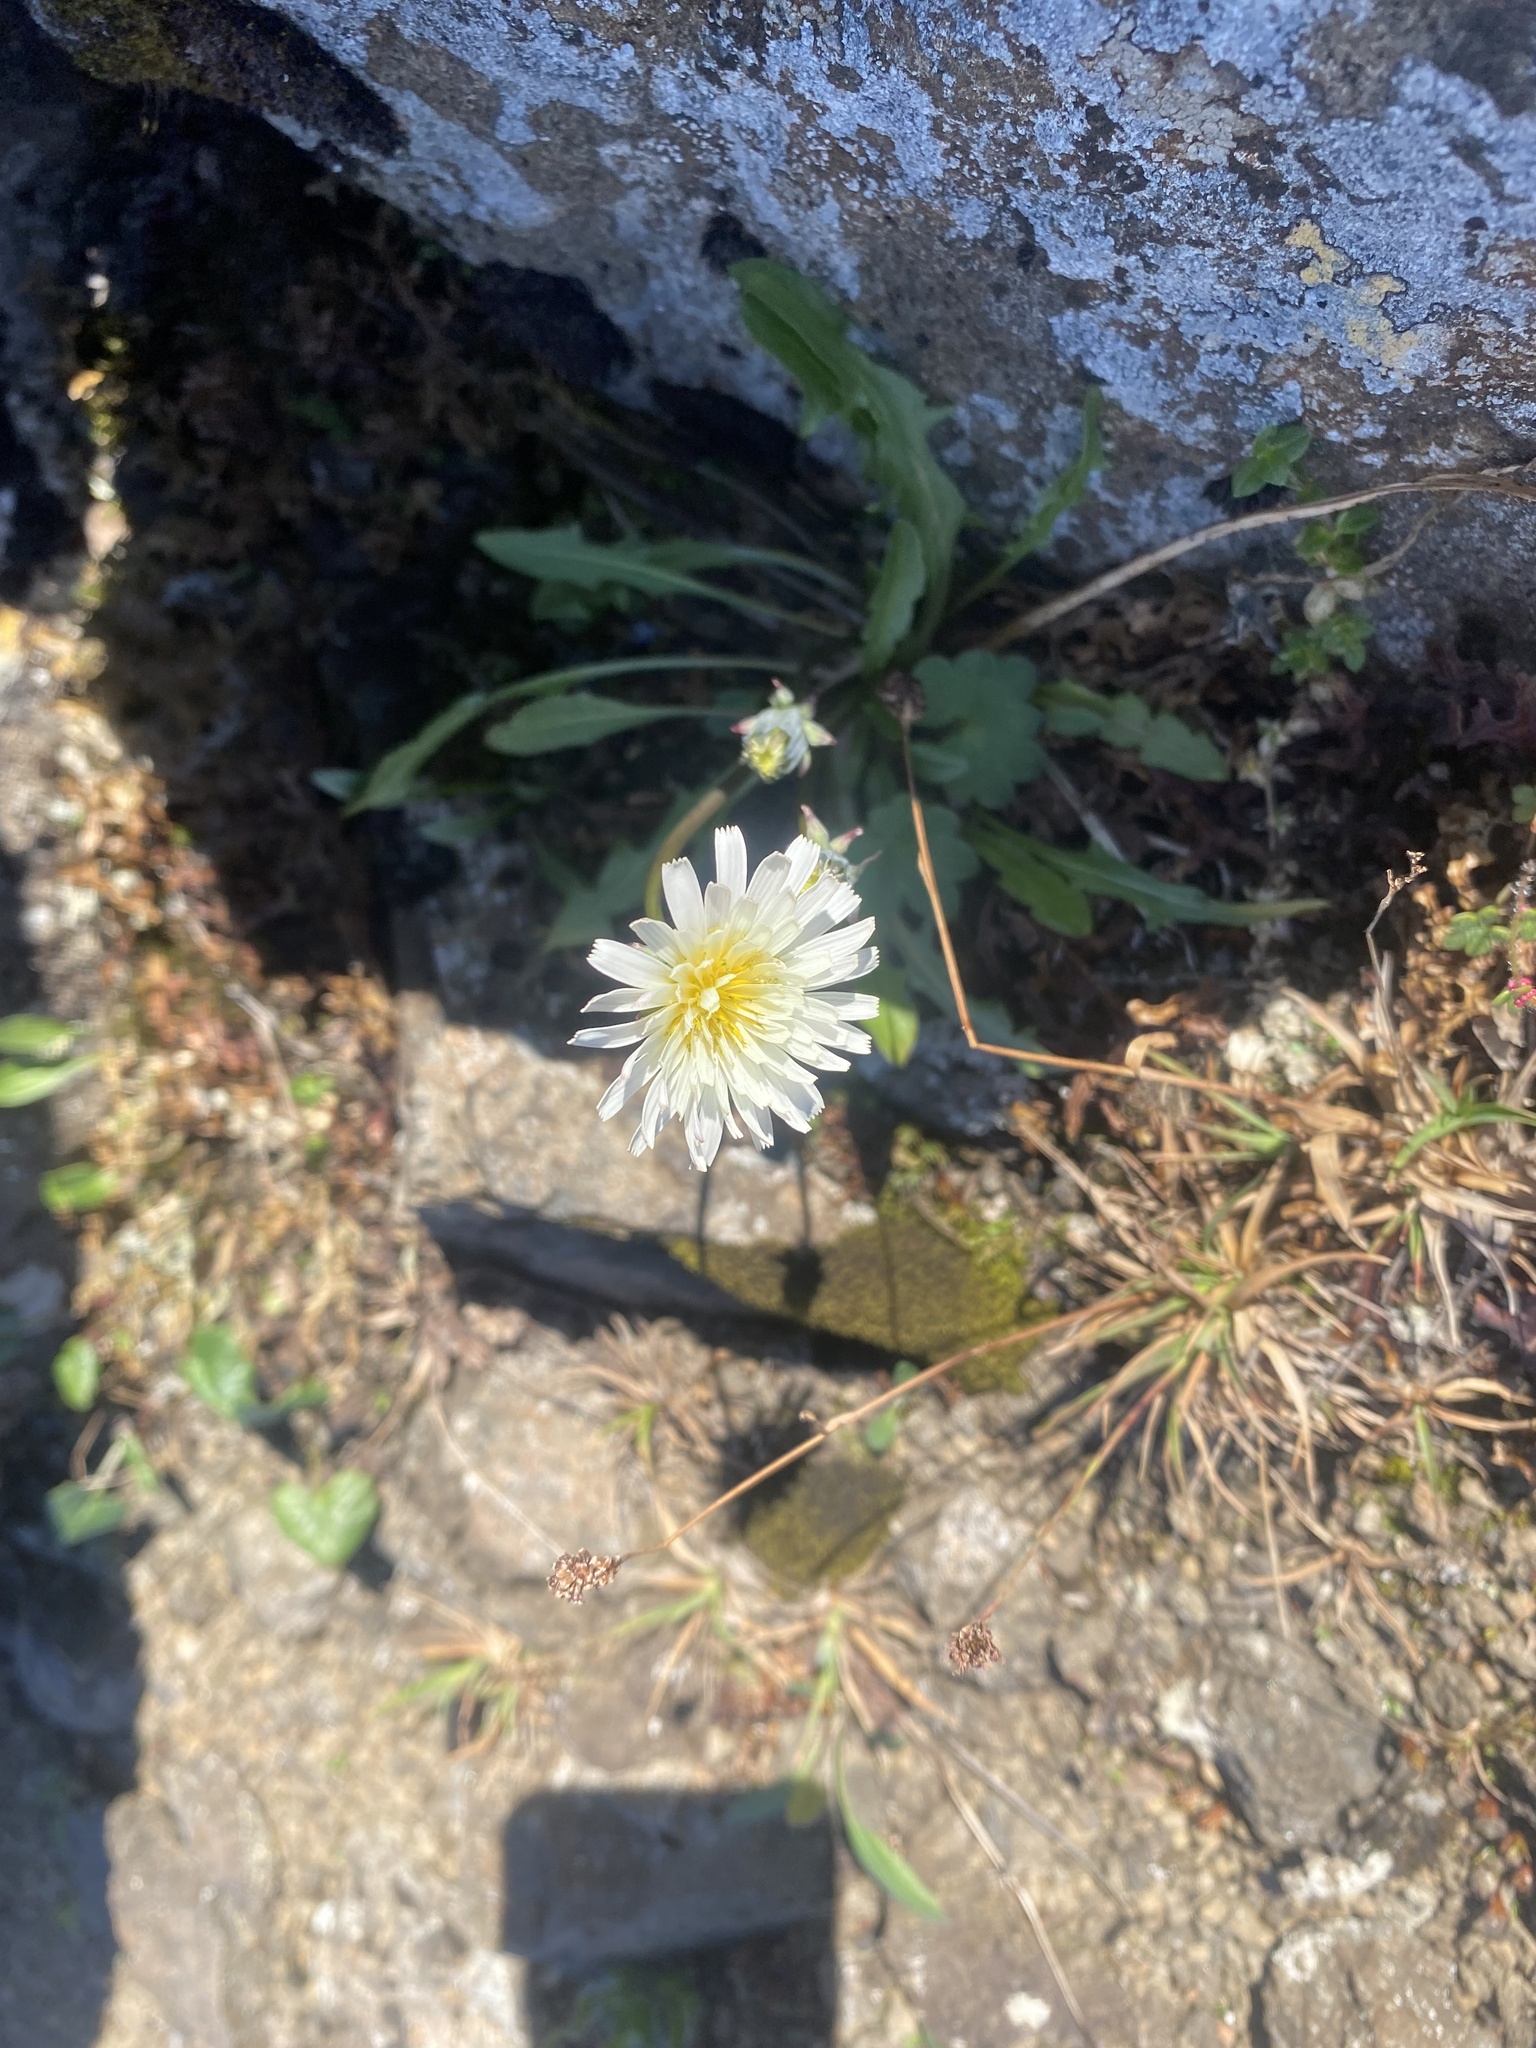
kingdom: Plantae
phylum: Tracheophyta
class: Magnoliopsida
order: Asterales
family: Asteraceae
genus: Taraxacum
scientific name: Taraxacum arcticum
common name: Arctic dandelion
